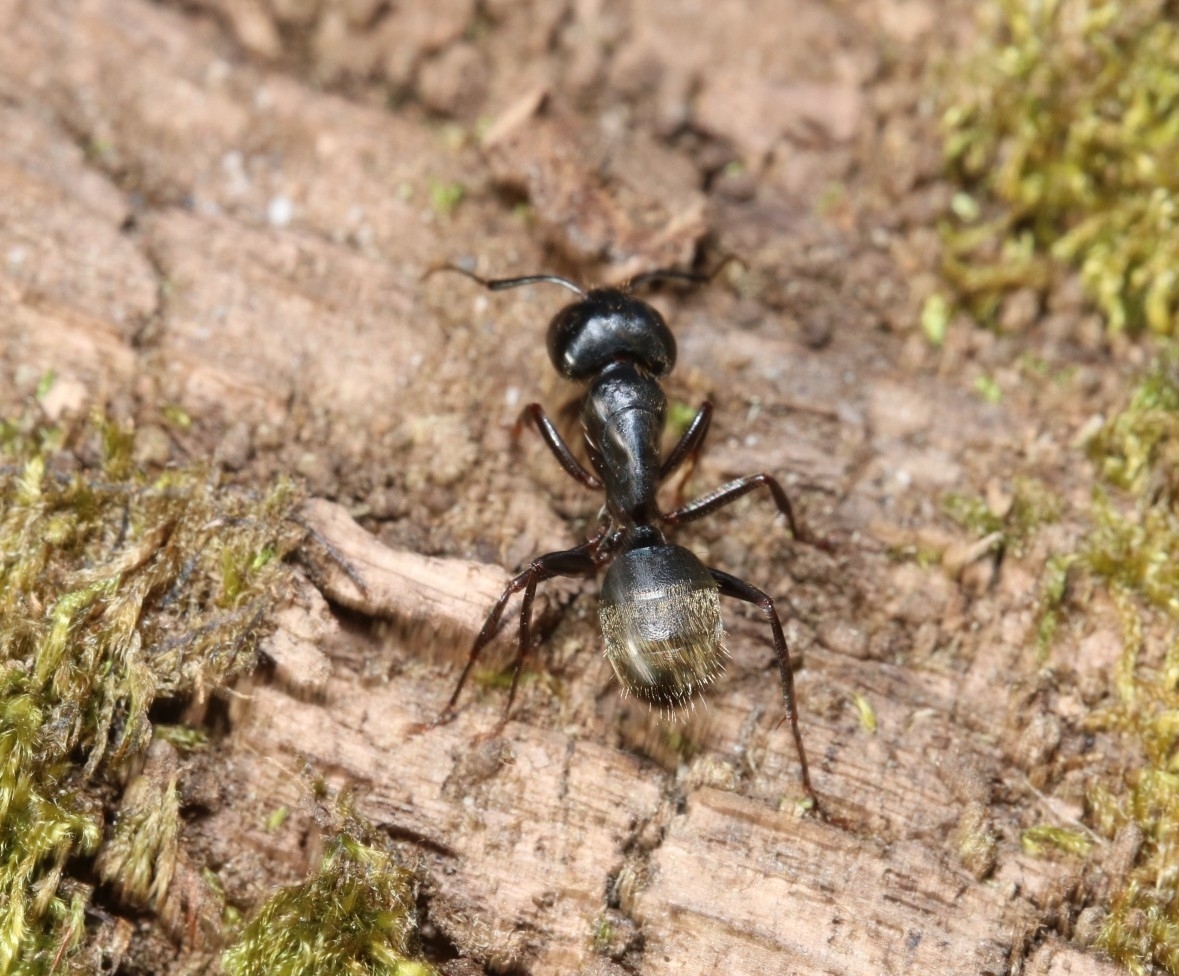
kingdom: Animalia
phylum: Arthropoda
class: Insecta
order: Hymenoptera
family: Formicidae
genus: Camponotus
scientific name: Camponotus pennsylvanicus
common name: Black carpenter ant
